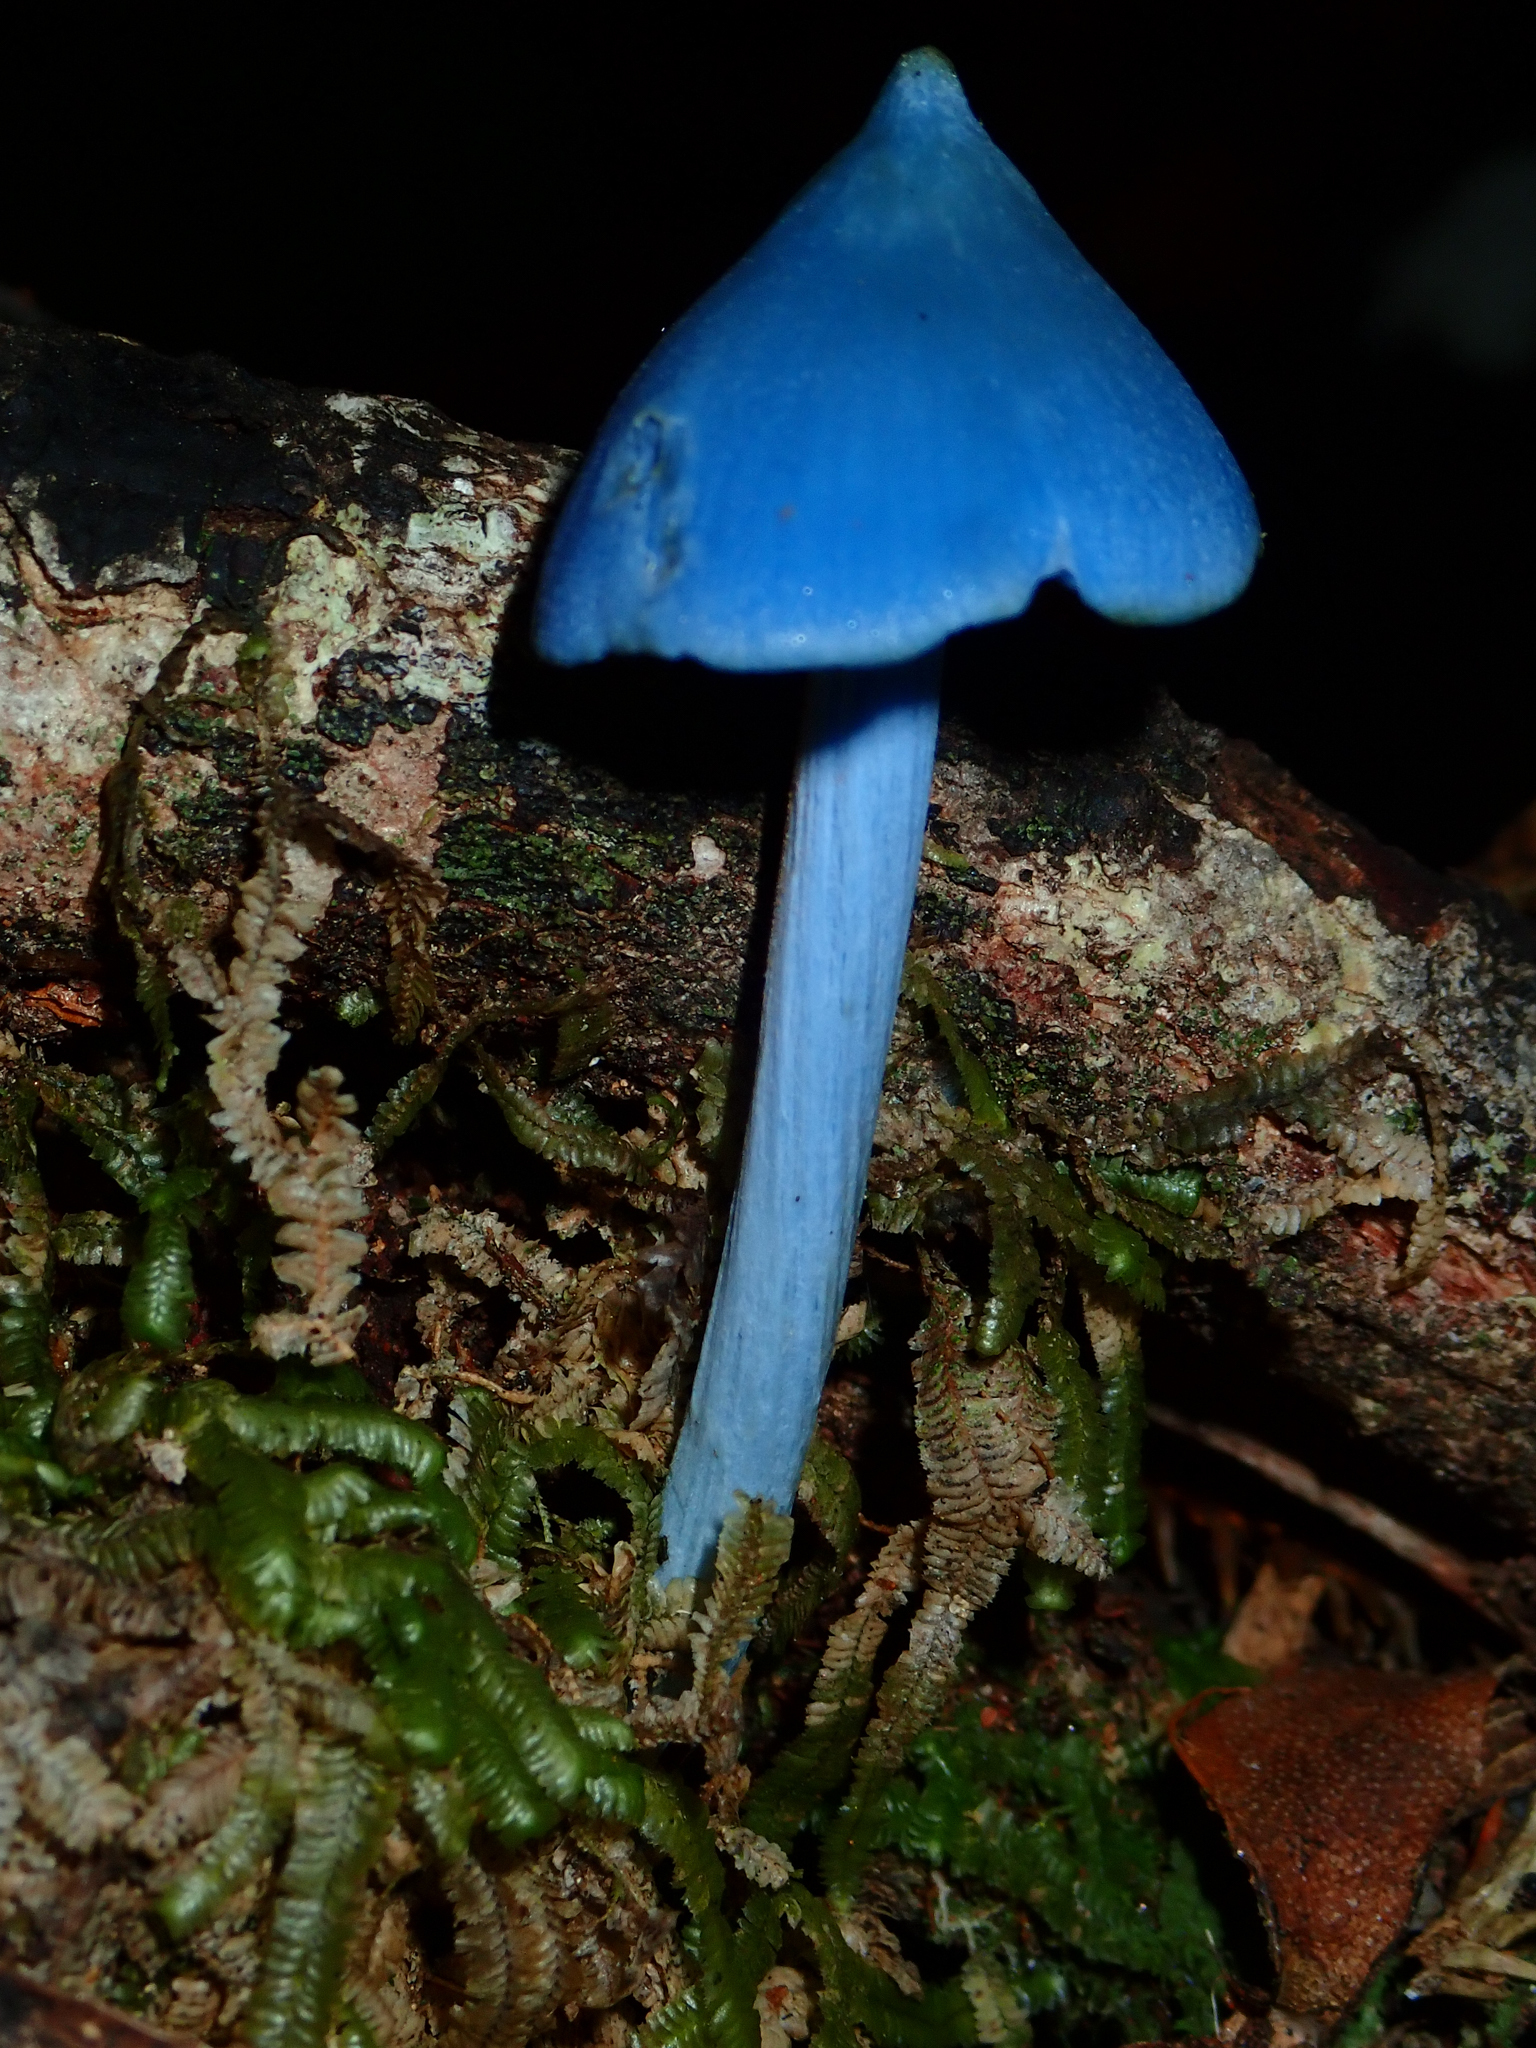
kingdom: Fungi
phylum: Basidiomycota
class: Agaricomycetes
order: Agaricales
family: Entolomataceae
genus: Entoloma
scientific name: Entoloma hochstetteri
